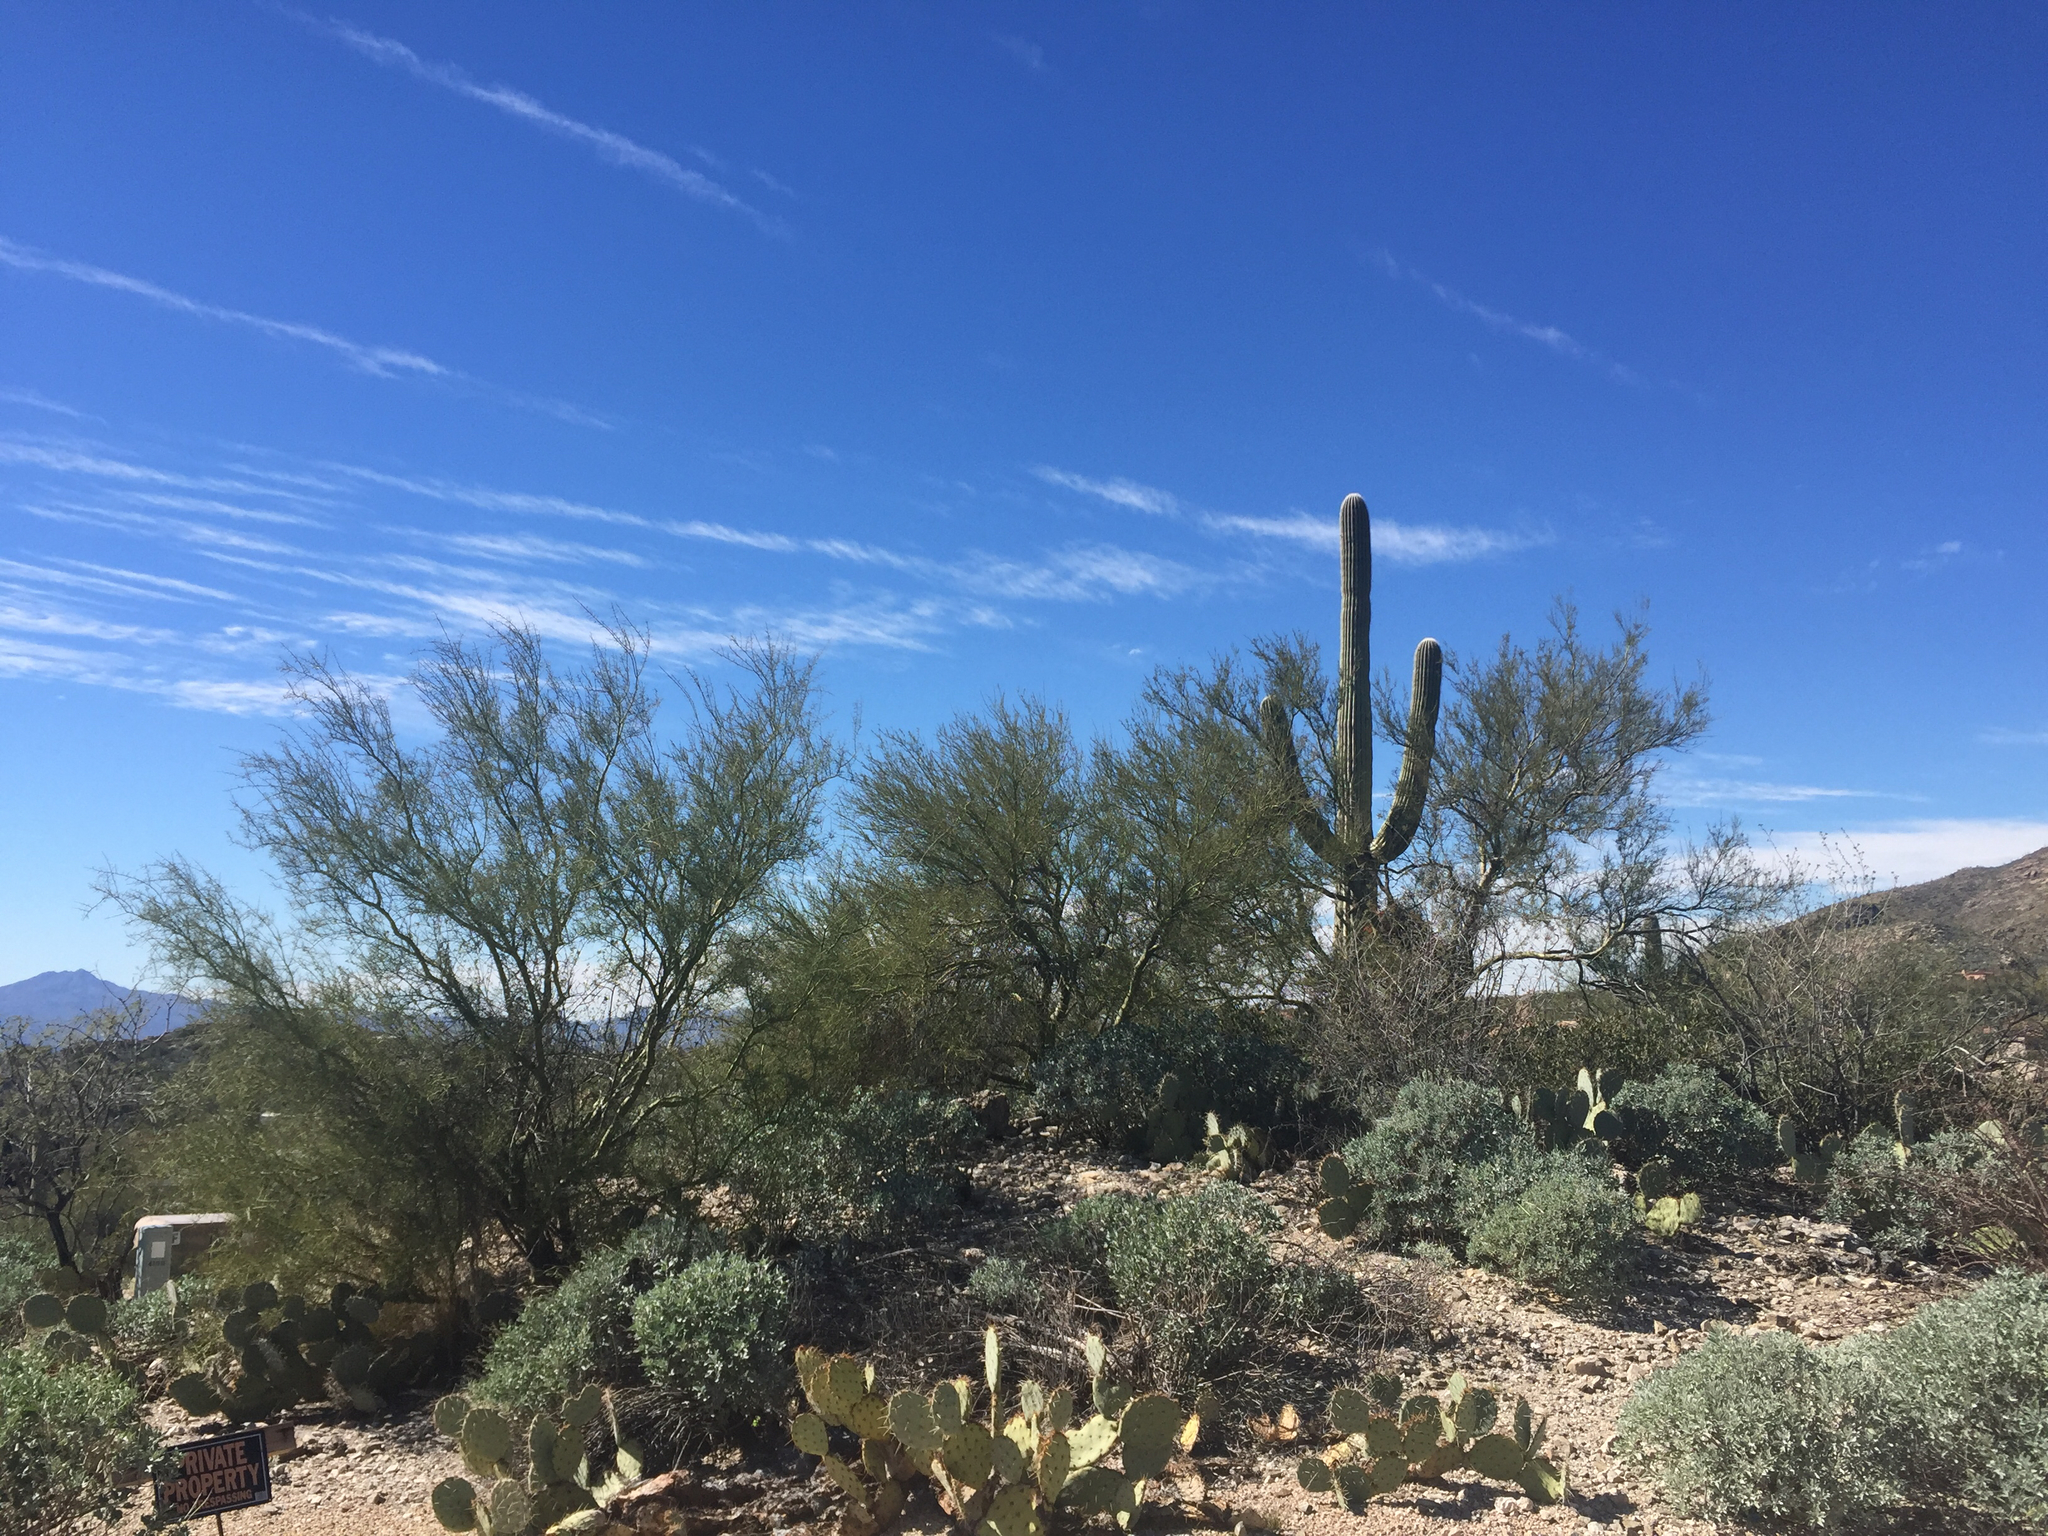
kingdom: Plantae
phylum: Tracheophyta
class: Magnoliopsida
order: Fabales
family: Fabaceae
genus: Parkinsonia
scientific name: Parkinsonia microphylla
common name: Yellow paloverde
